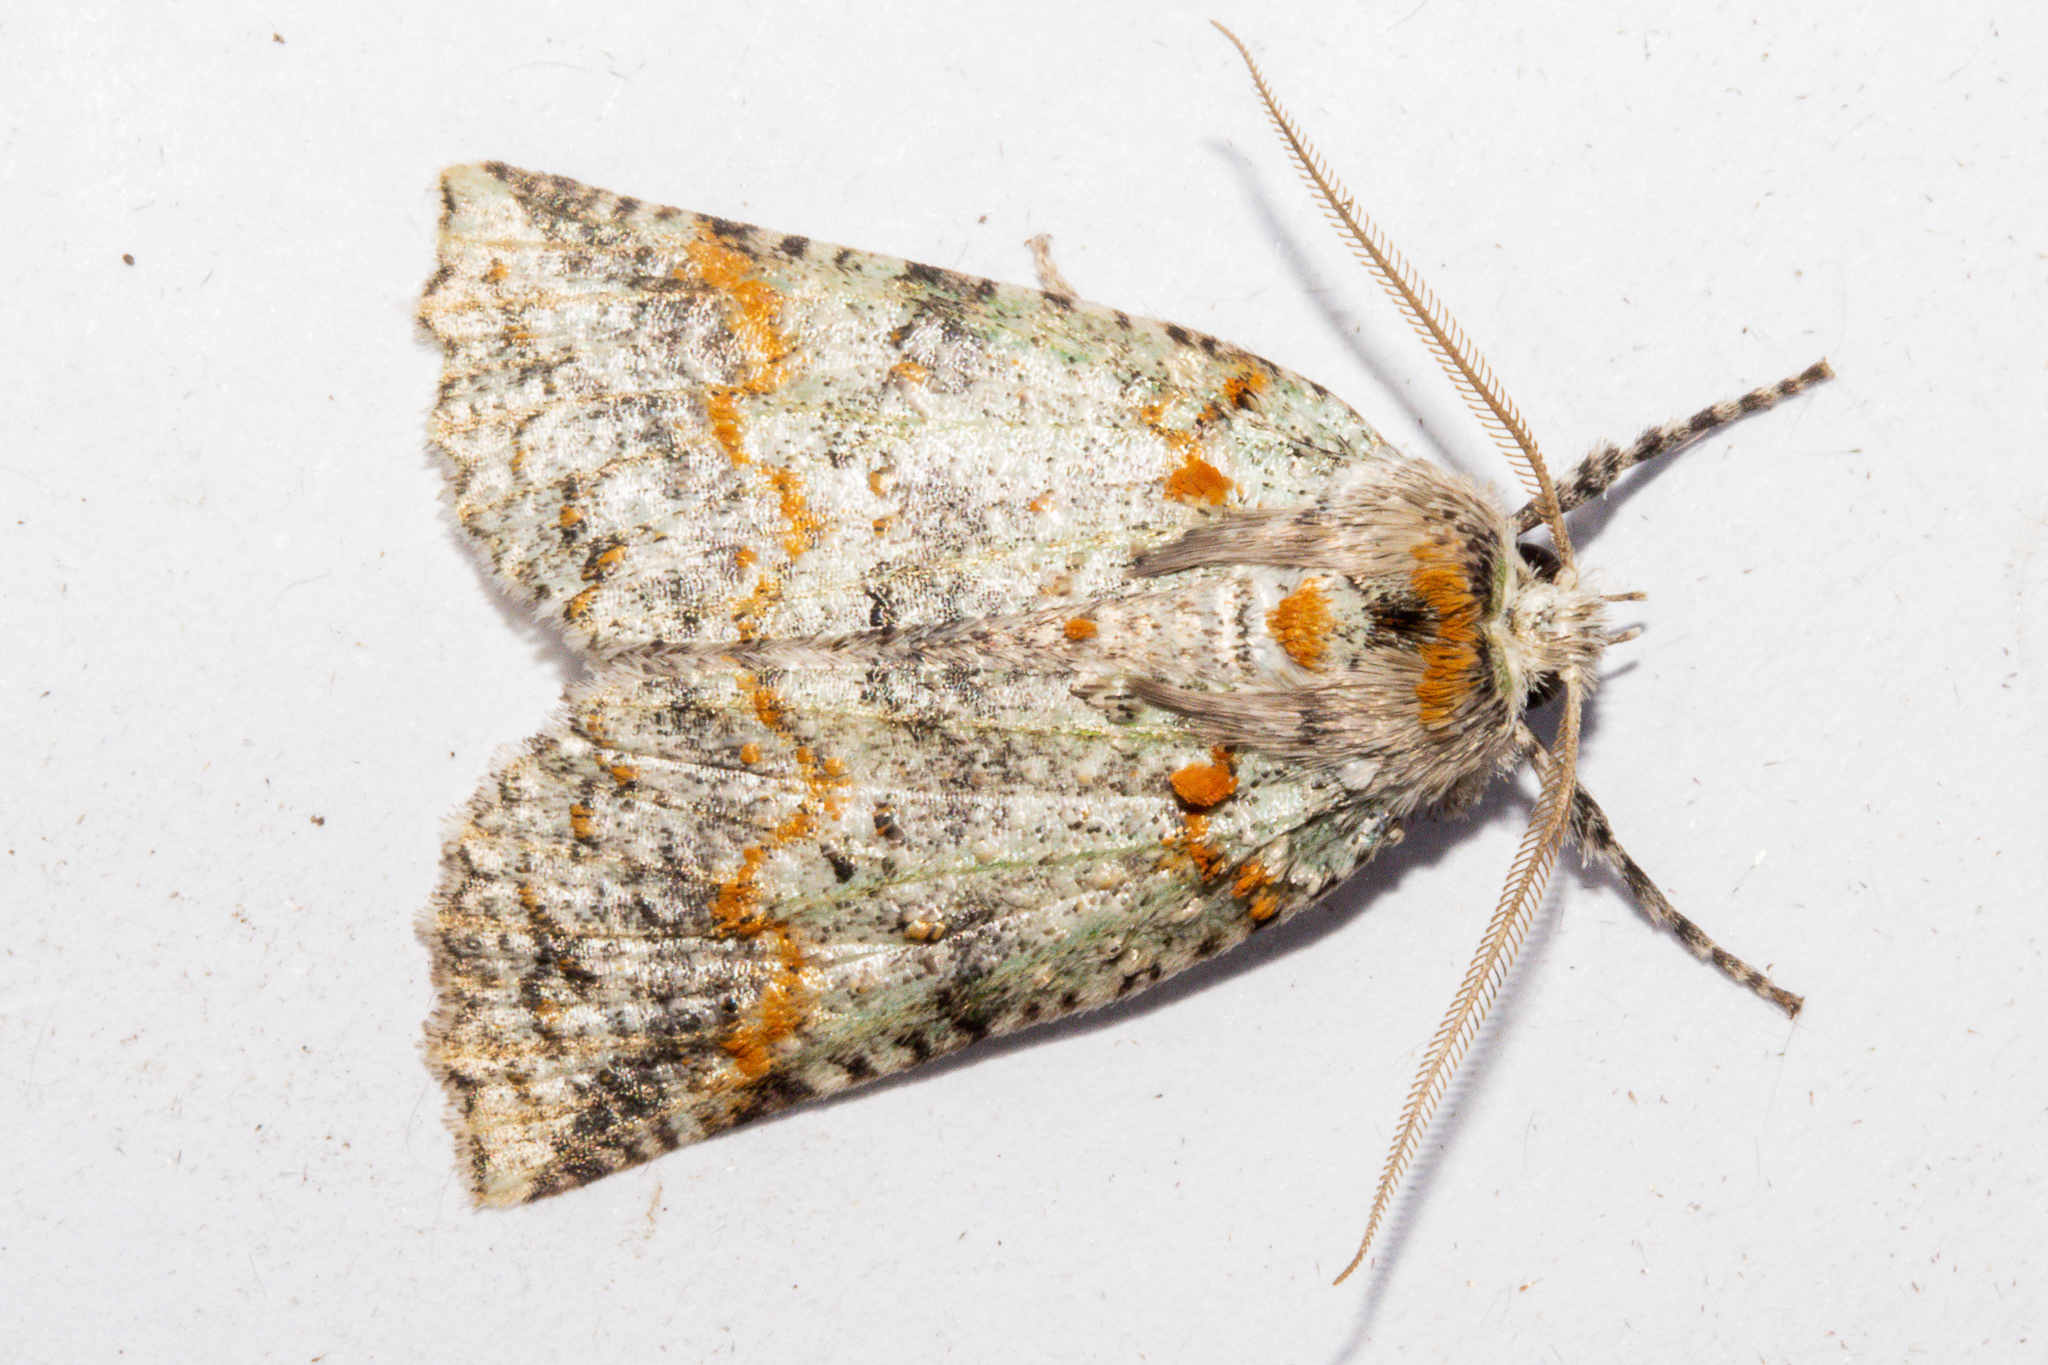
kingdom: Animalia
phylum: Arthropoda
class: Insecta
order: Lepidoptera
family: Geometridae
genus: Declana
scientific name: Declana floccosa
